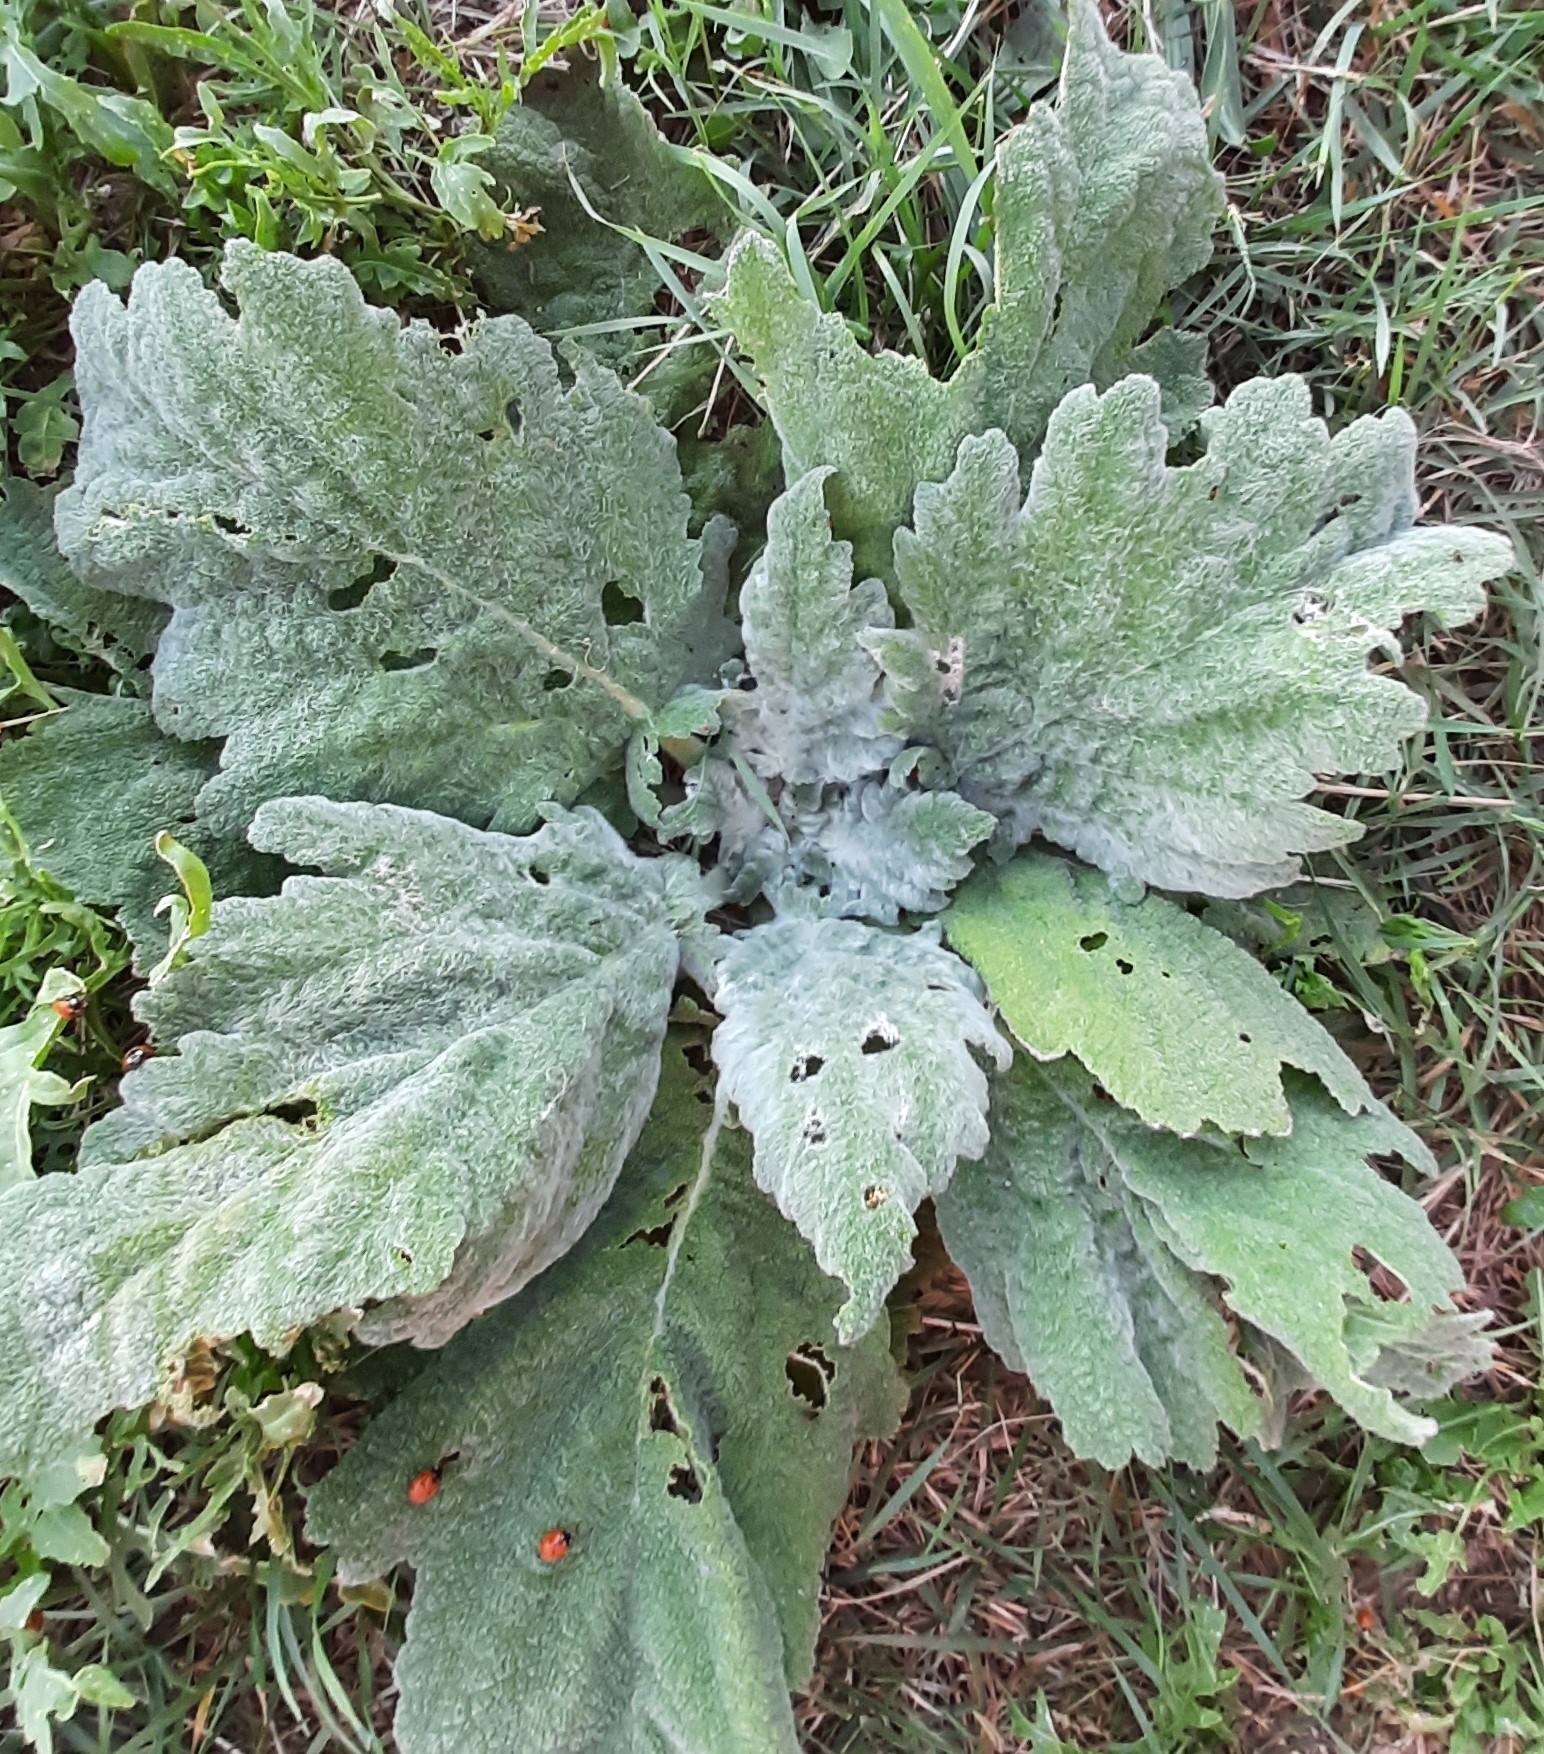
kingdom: Plantae
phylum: Tracheophyta
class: Magnoliopsida
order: Lamiales
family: Lamiaceae
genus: Salvia
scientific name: Salvia aethiopis
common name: Mediterranean sage
